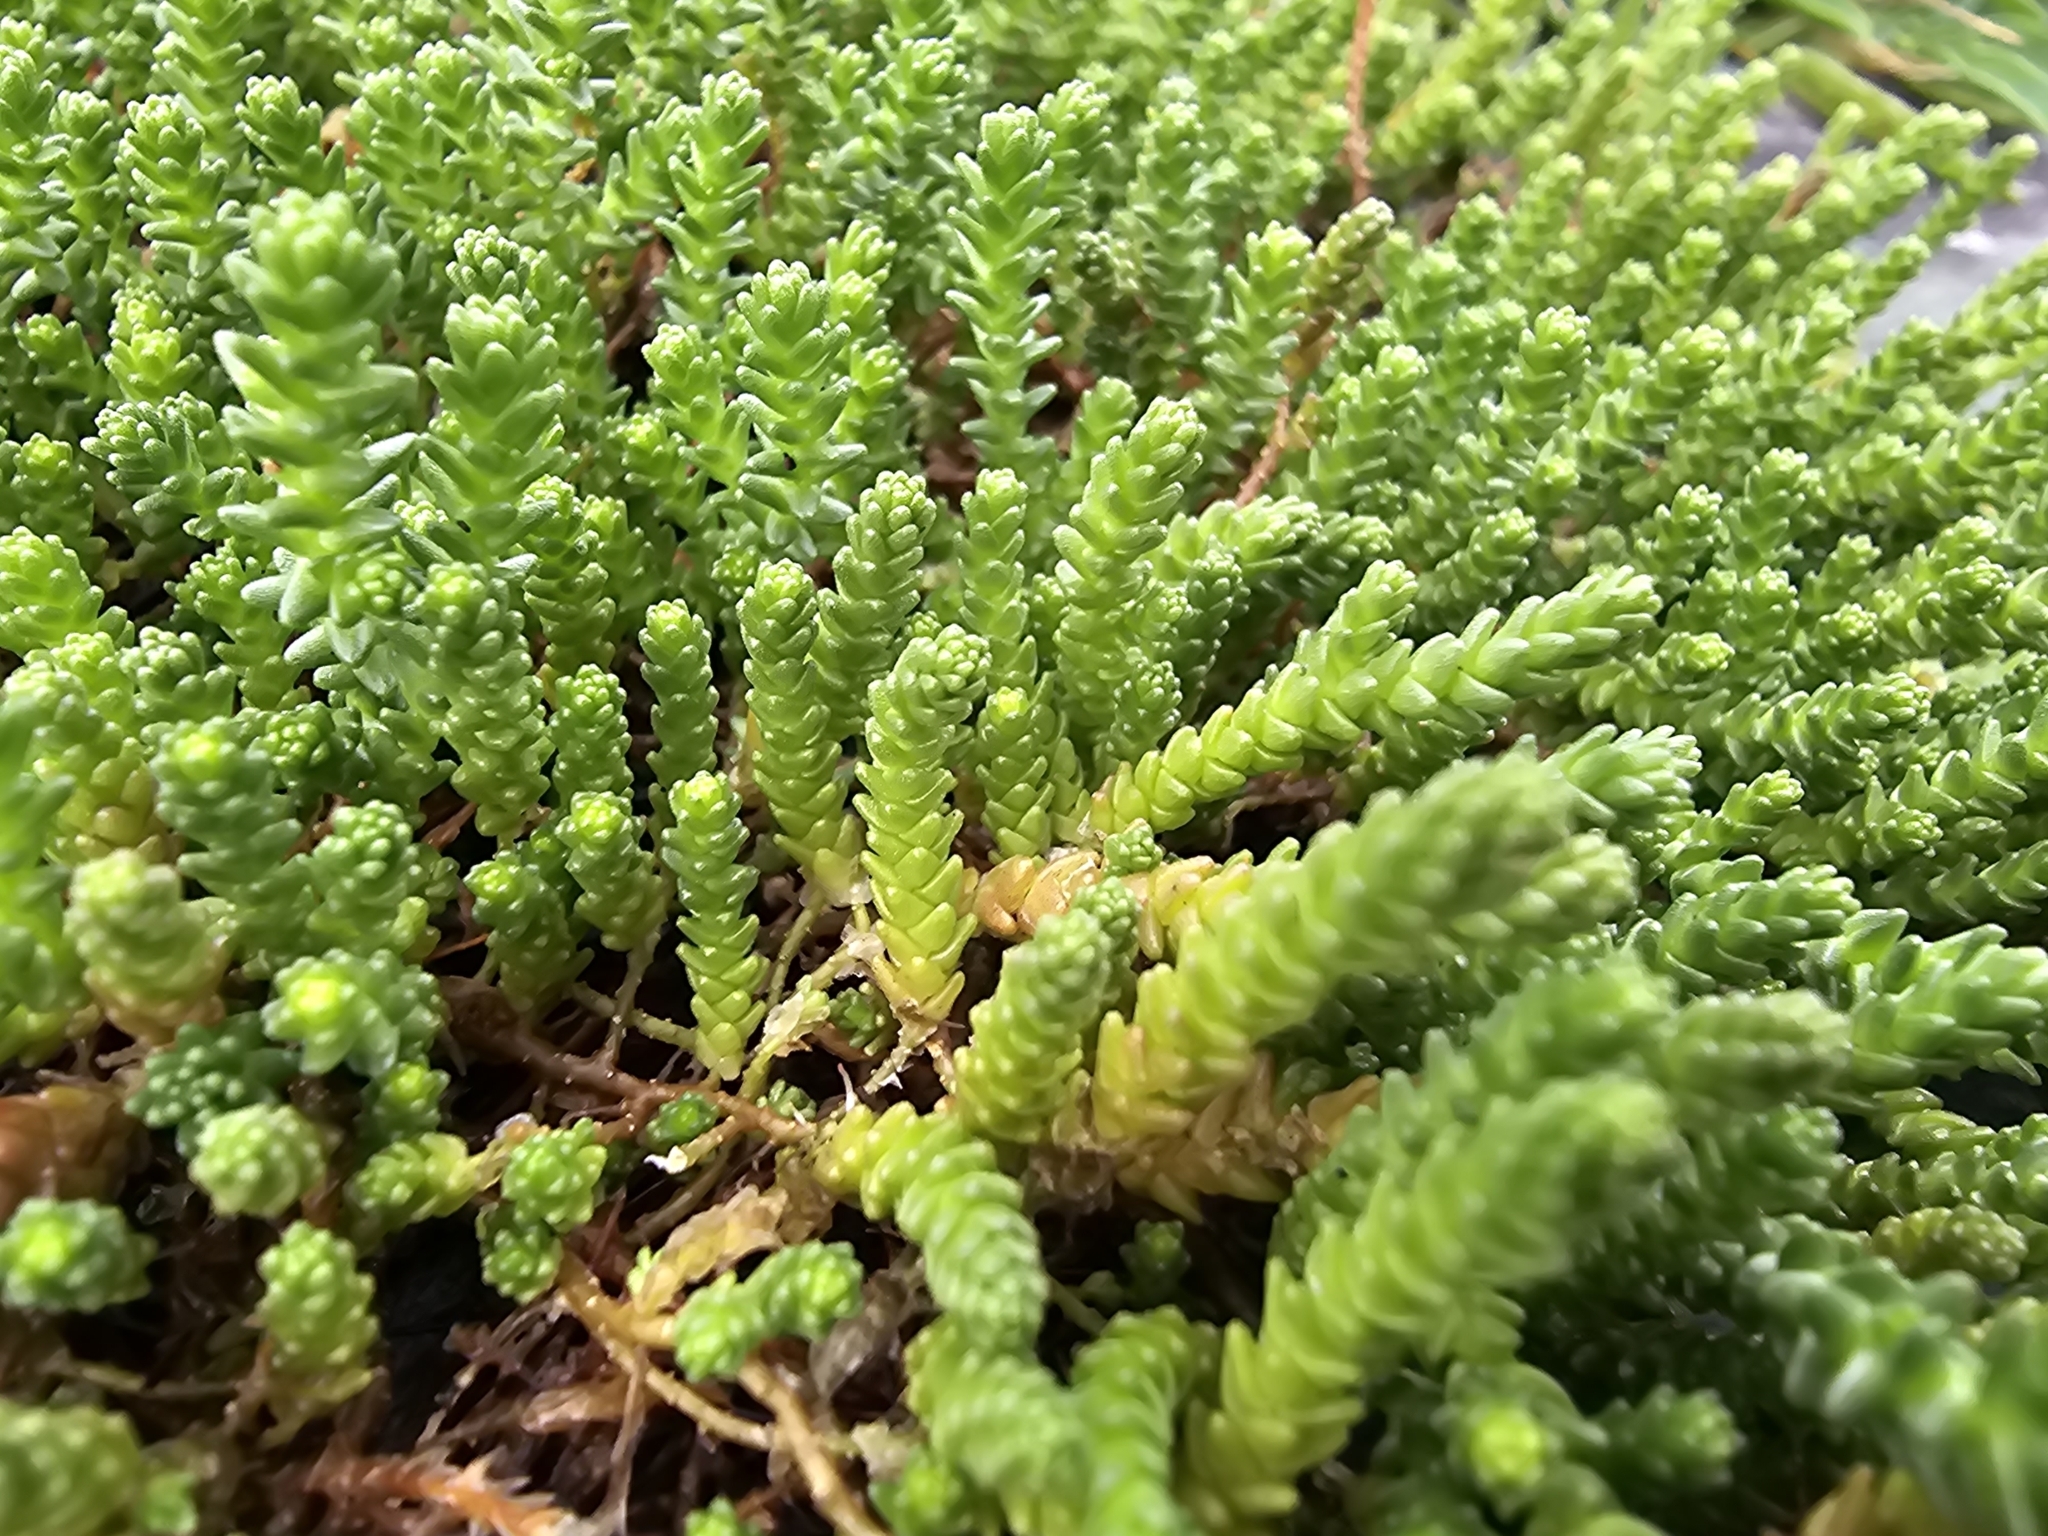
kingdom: Plantae
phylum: Tracheophyta
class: Magnoliopsida
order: Saxifragales
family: Crassulaceae
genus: Sedum
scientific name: Sedum acre
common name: Biting stonecrop
